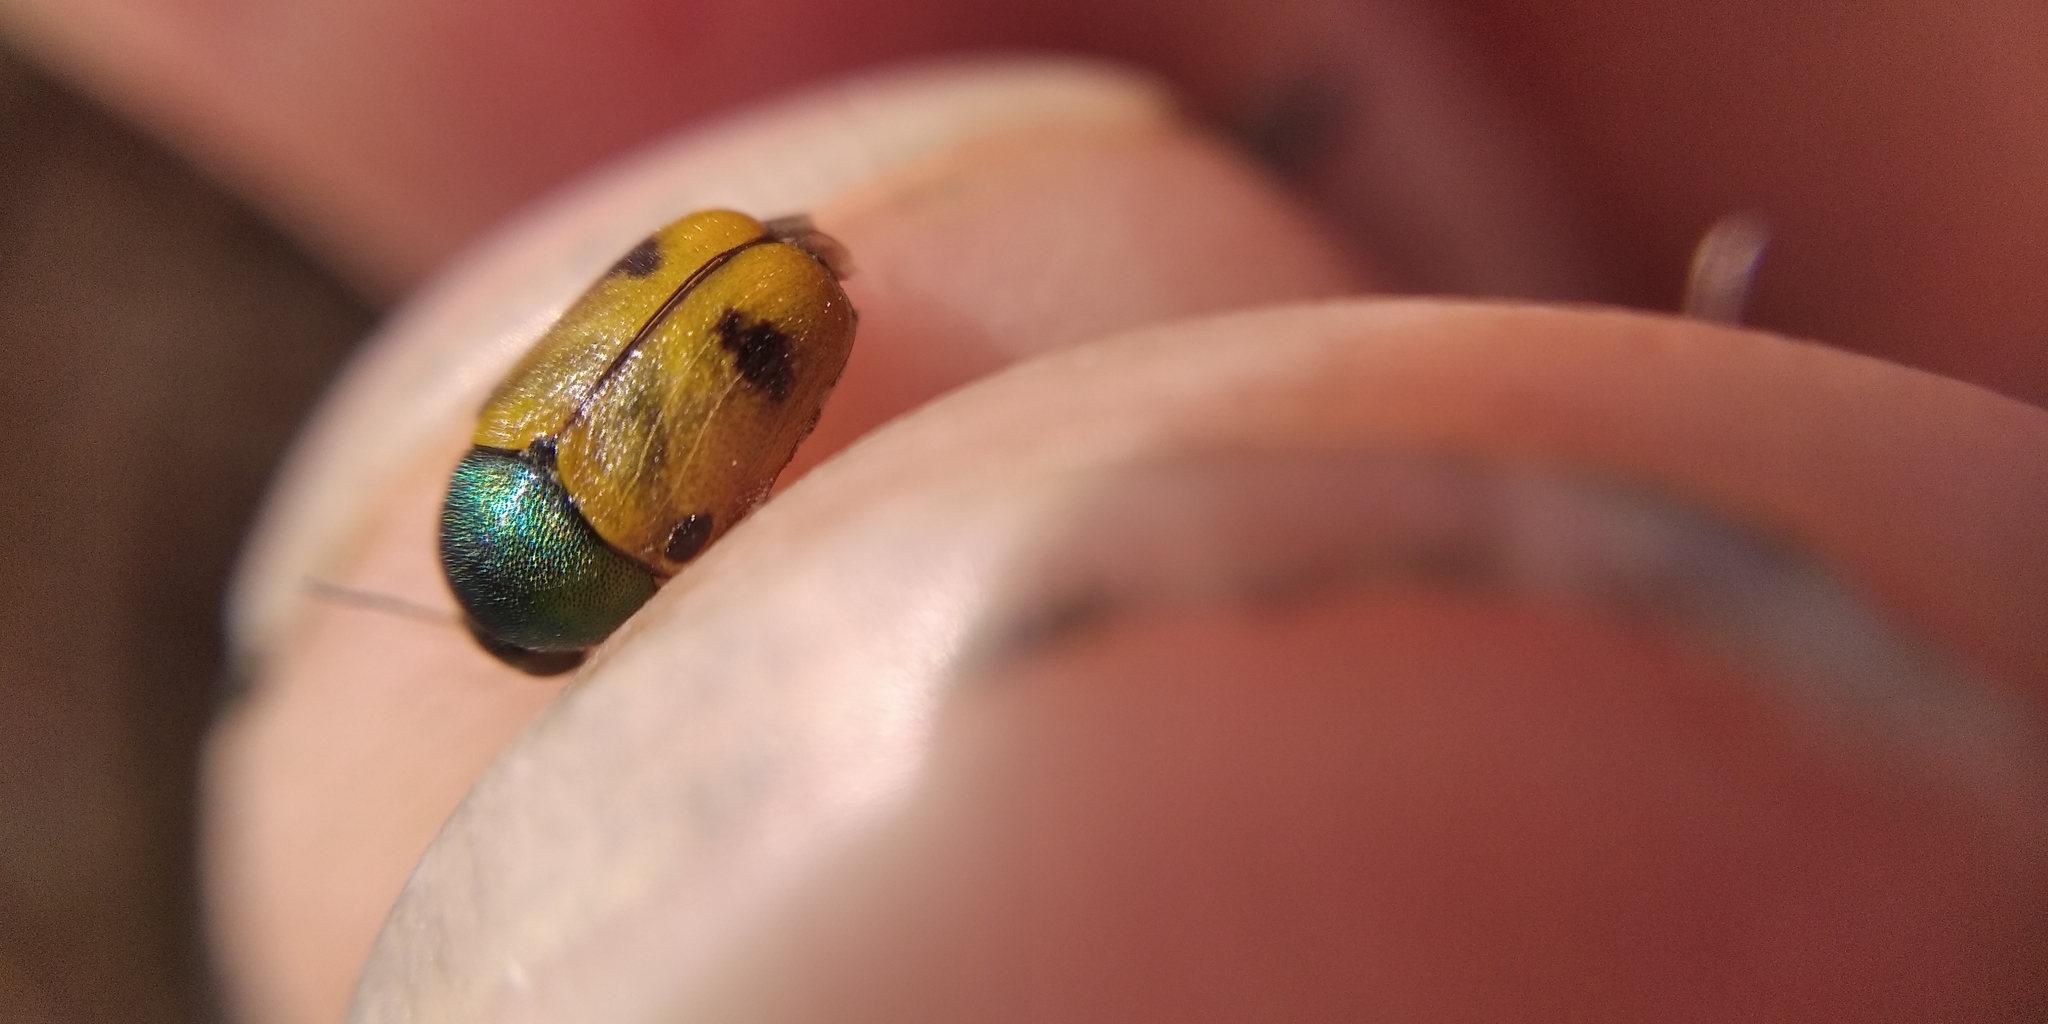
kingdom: Animalia
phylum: Arthropoda
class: Insecta
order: Coleoptera
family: Chrysomelidae
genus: Cryptocephalus
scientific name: Cryptocephalus laetus
